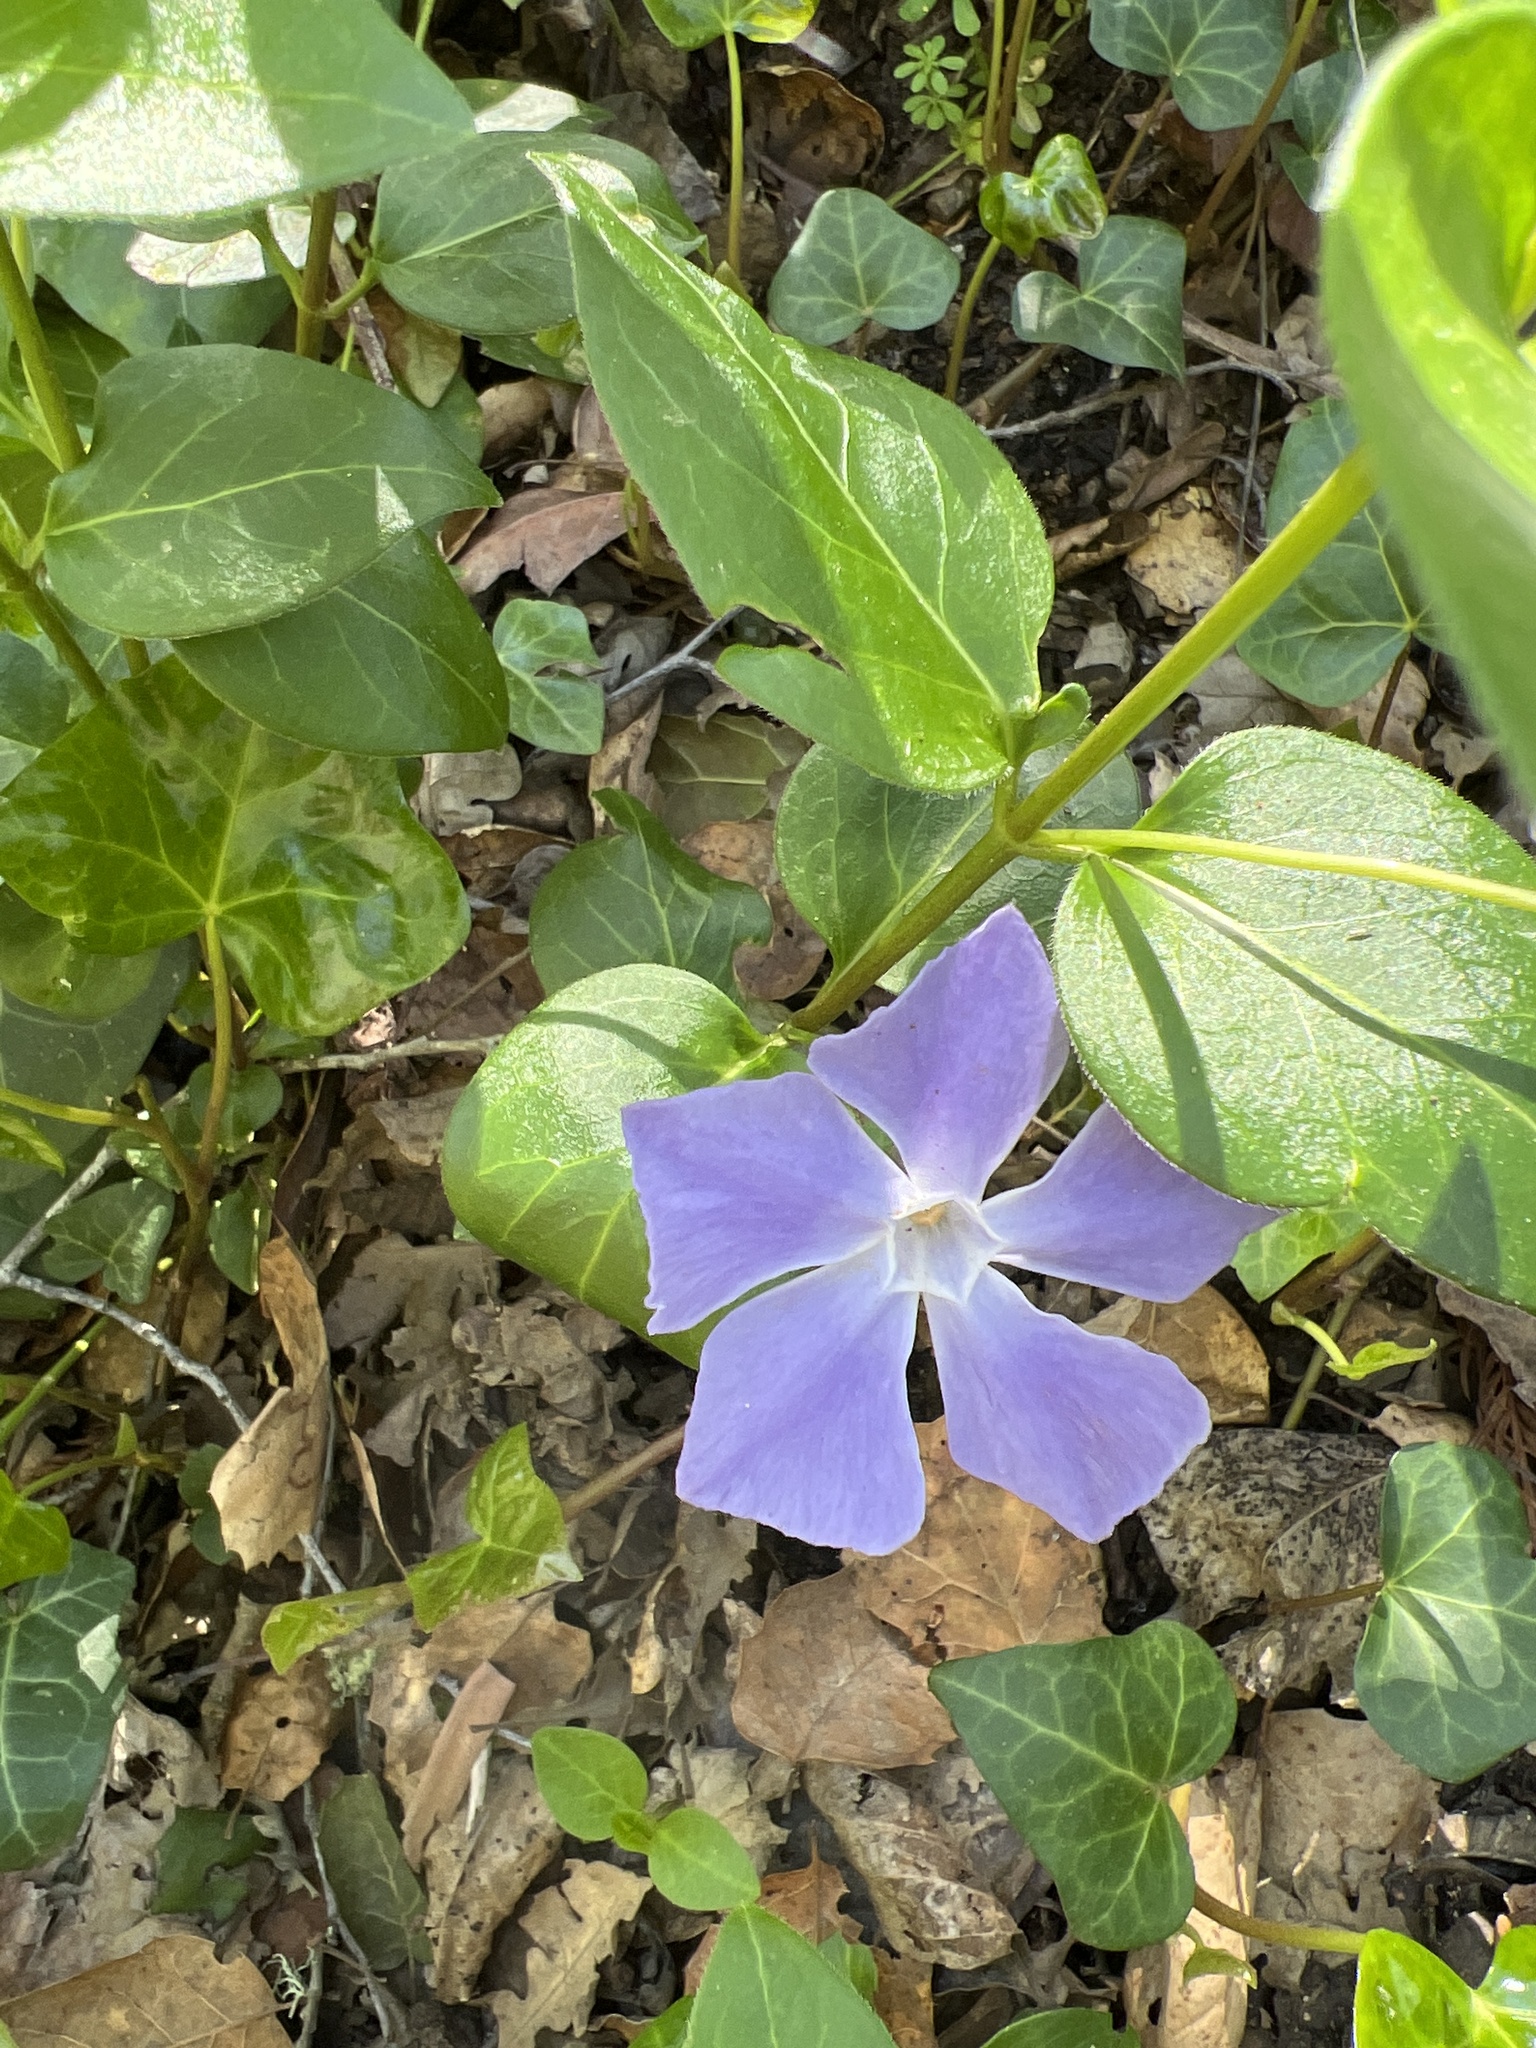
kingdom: Plantae
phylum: Tracheophyta
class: Magnoliopsida
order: Gentianales
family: Apocynaceae
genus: Vinca
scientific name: Vinca major
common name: Greater periwinkle
